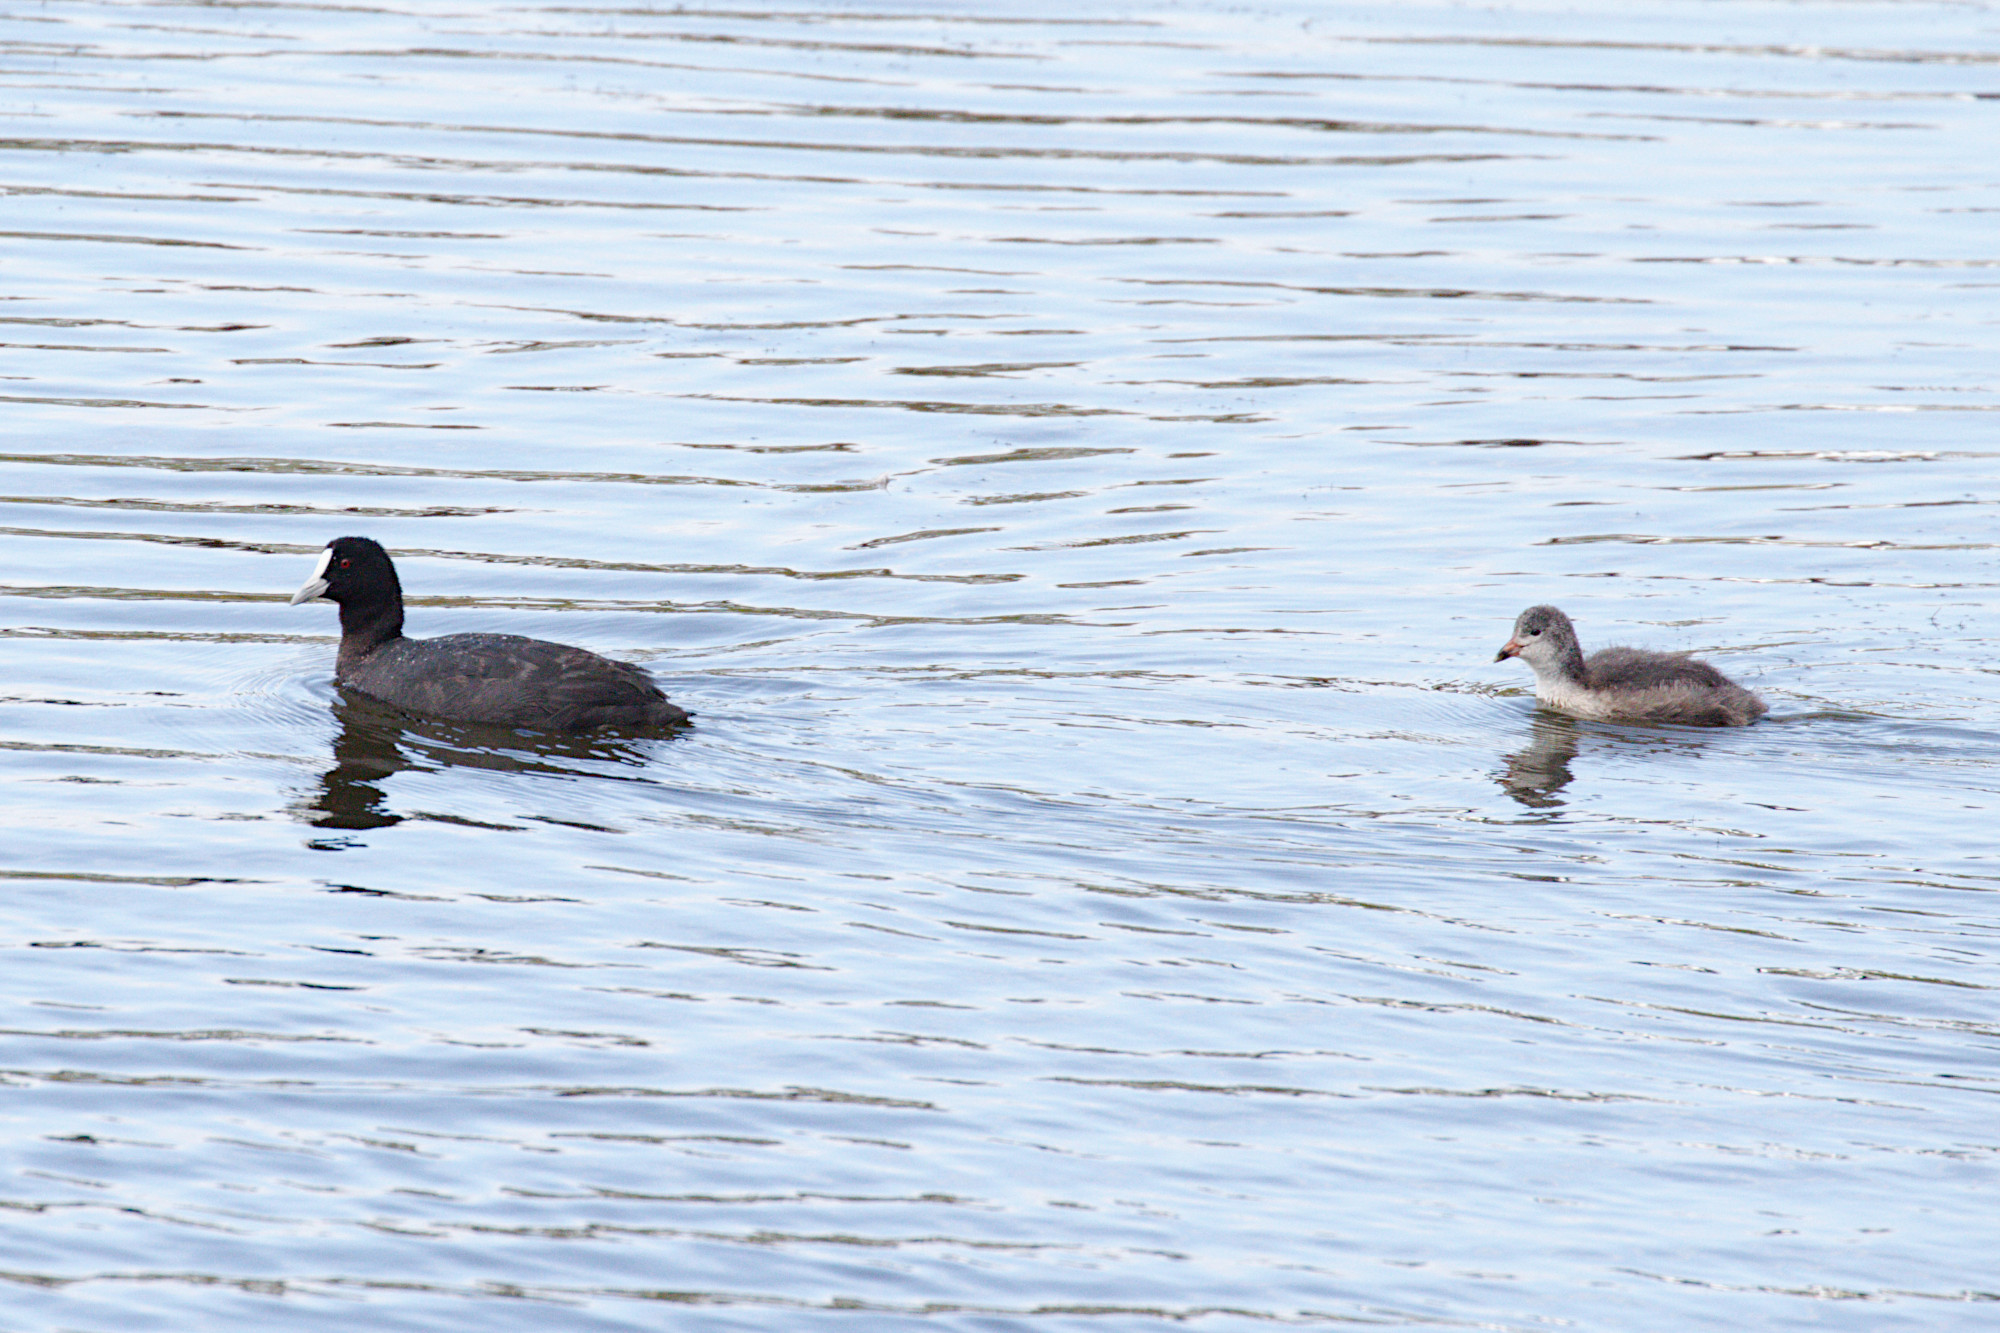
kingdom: Animalia
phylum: Chordata
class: Aves
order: Gruiformes
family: Rallidae
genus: Fulica
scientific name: Fulica atra
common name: Eurasian coot
